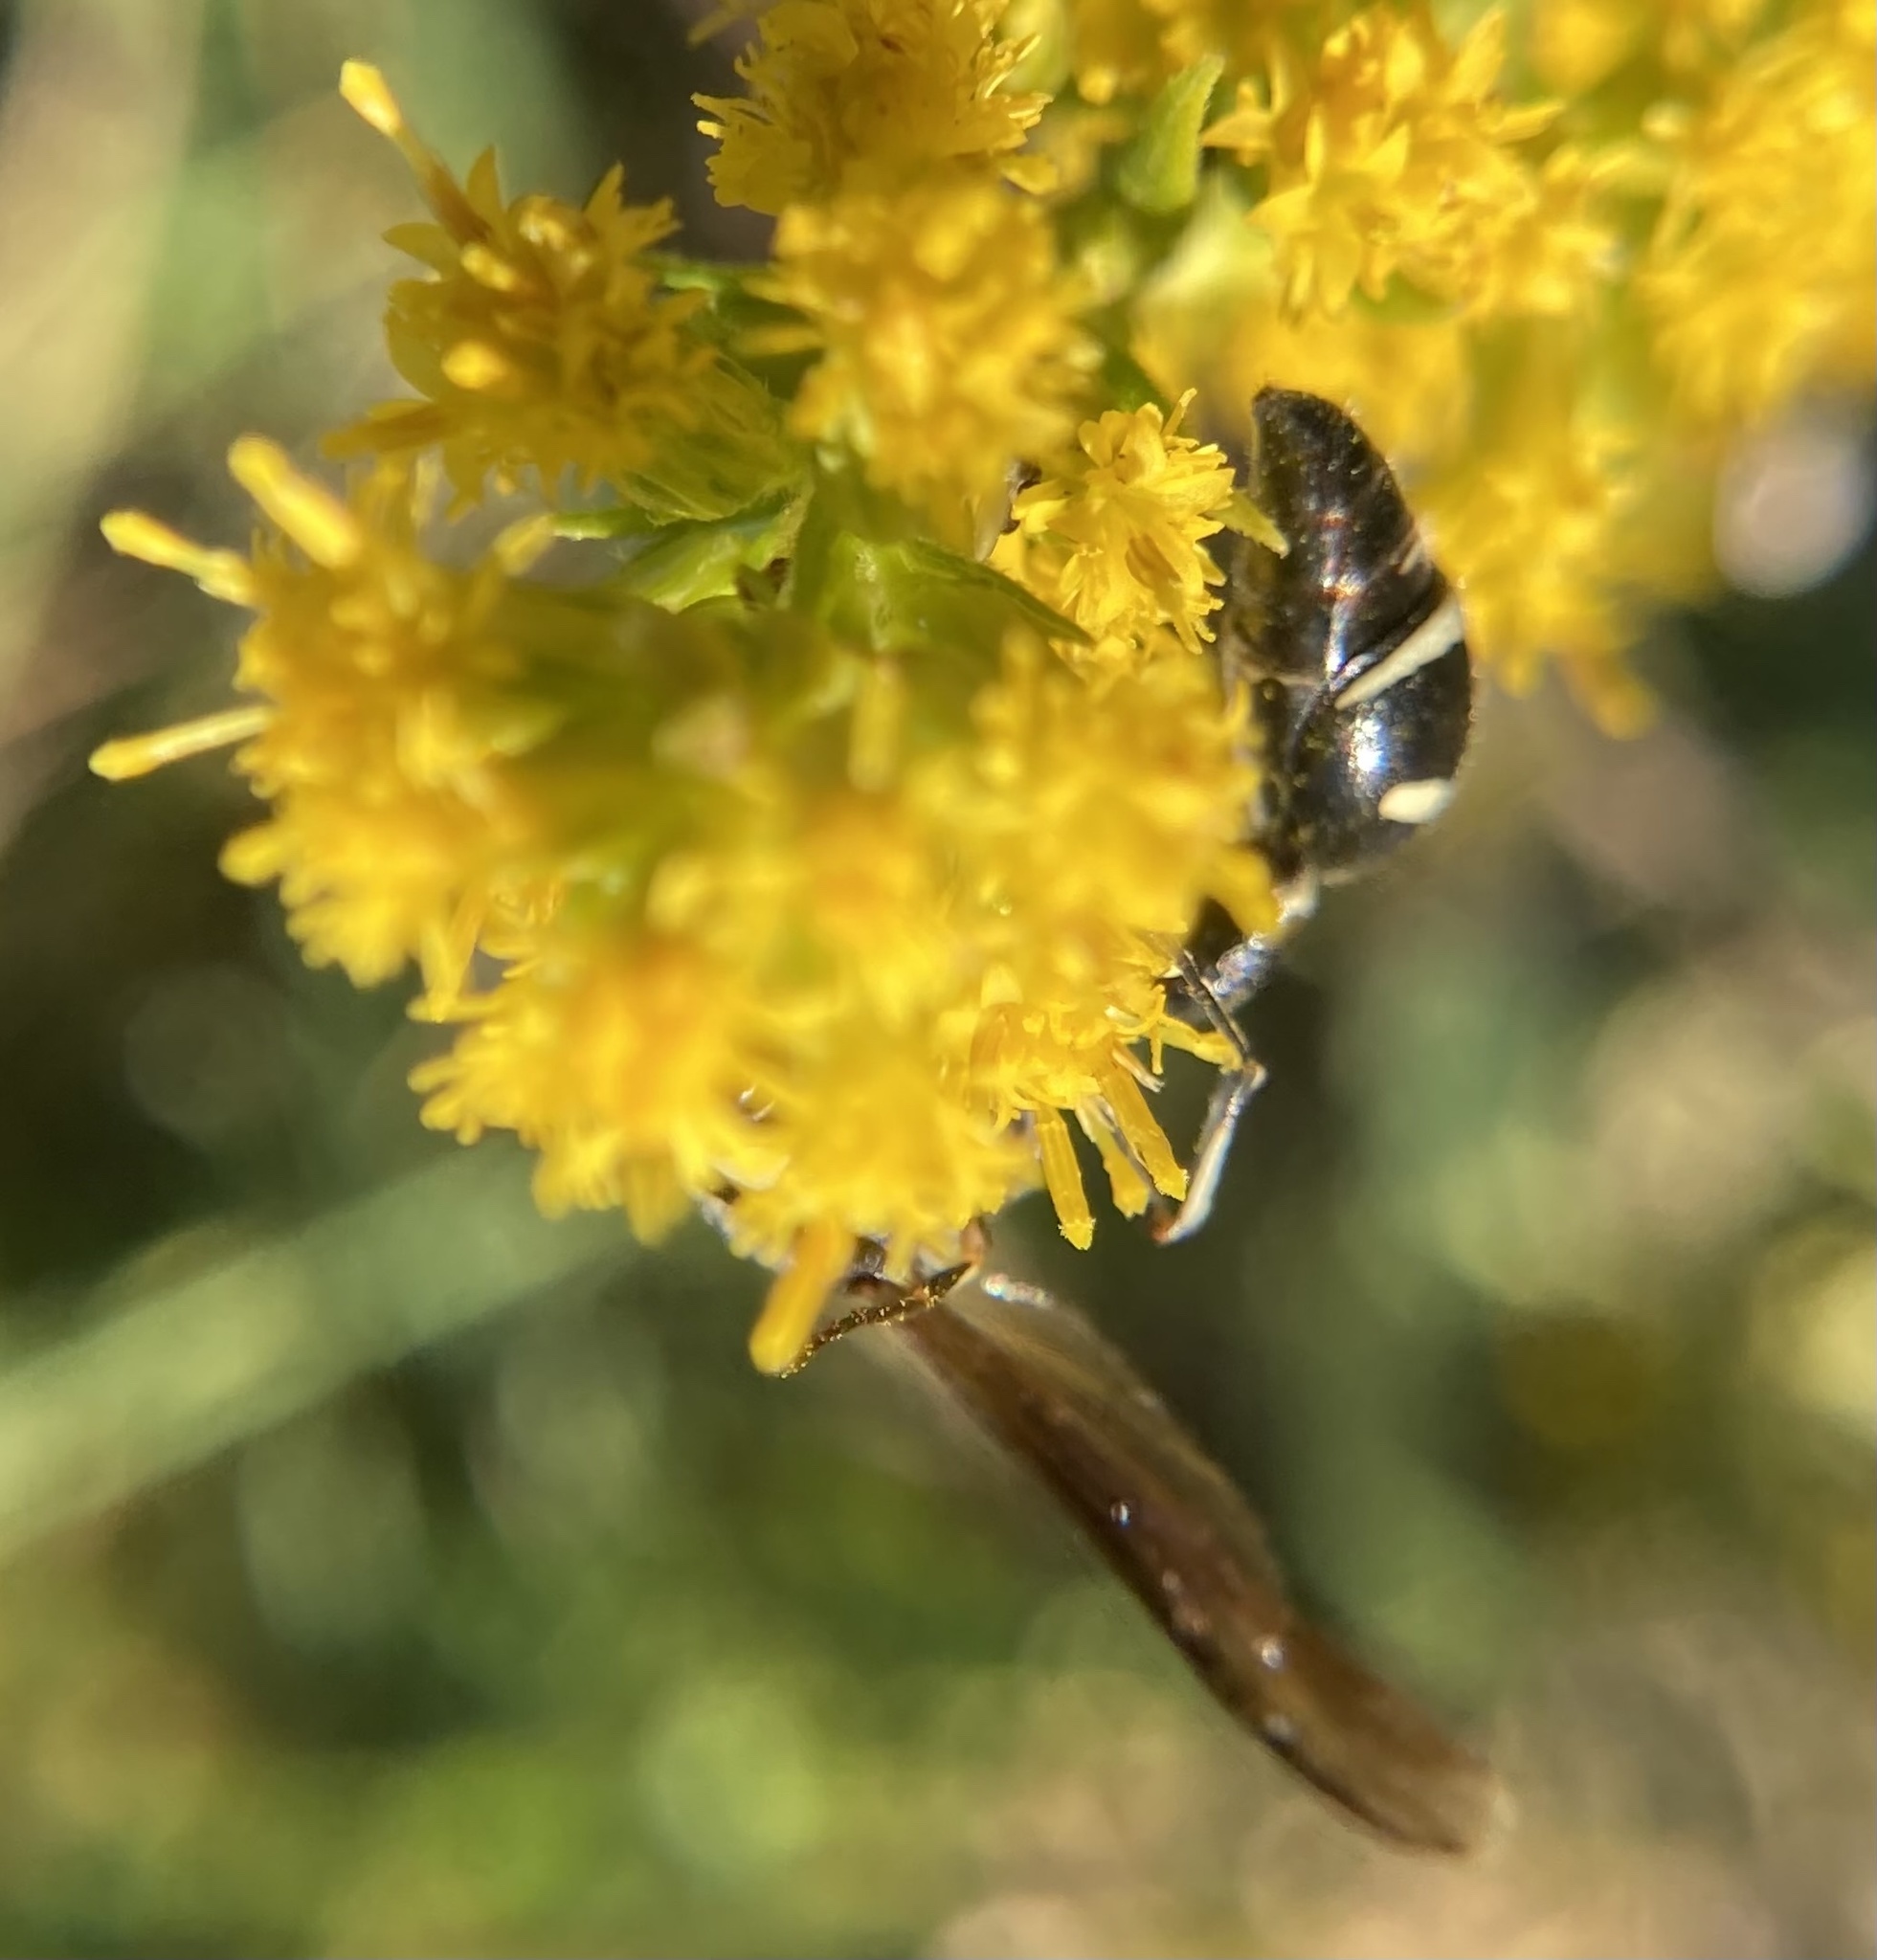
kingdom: Animalia
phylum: Arthropoda
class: Insecta
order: Hymenoptera
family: Vespidae
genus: Eumenes
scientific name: Eumenes fraternus
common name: Fraternal potter wasp
